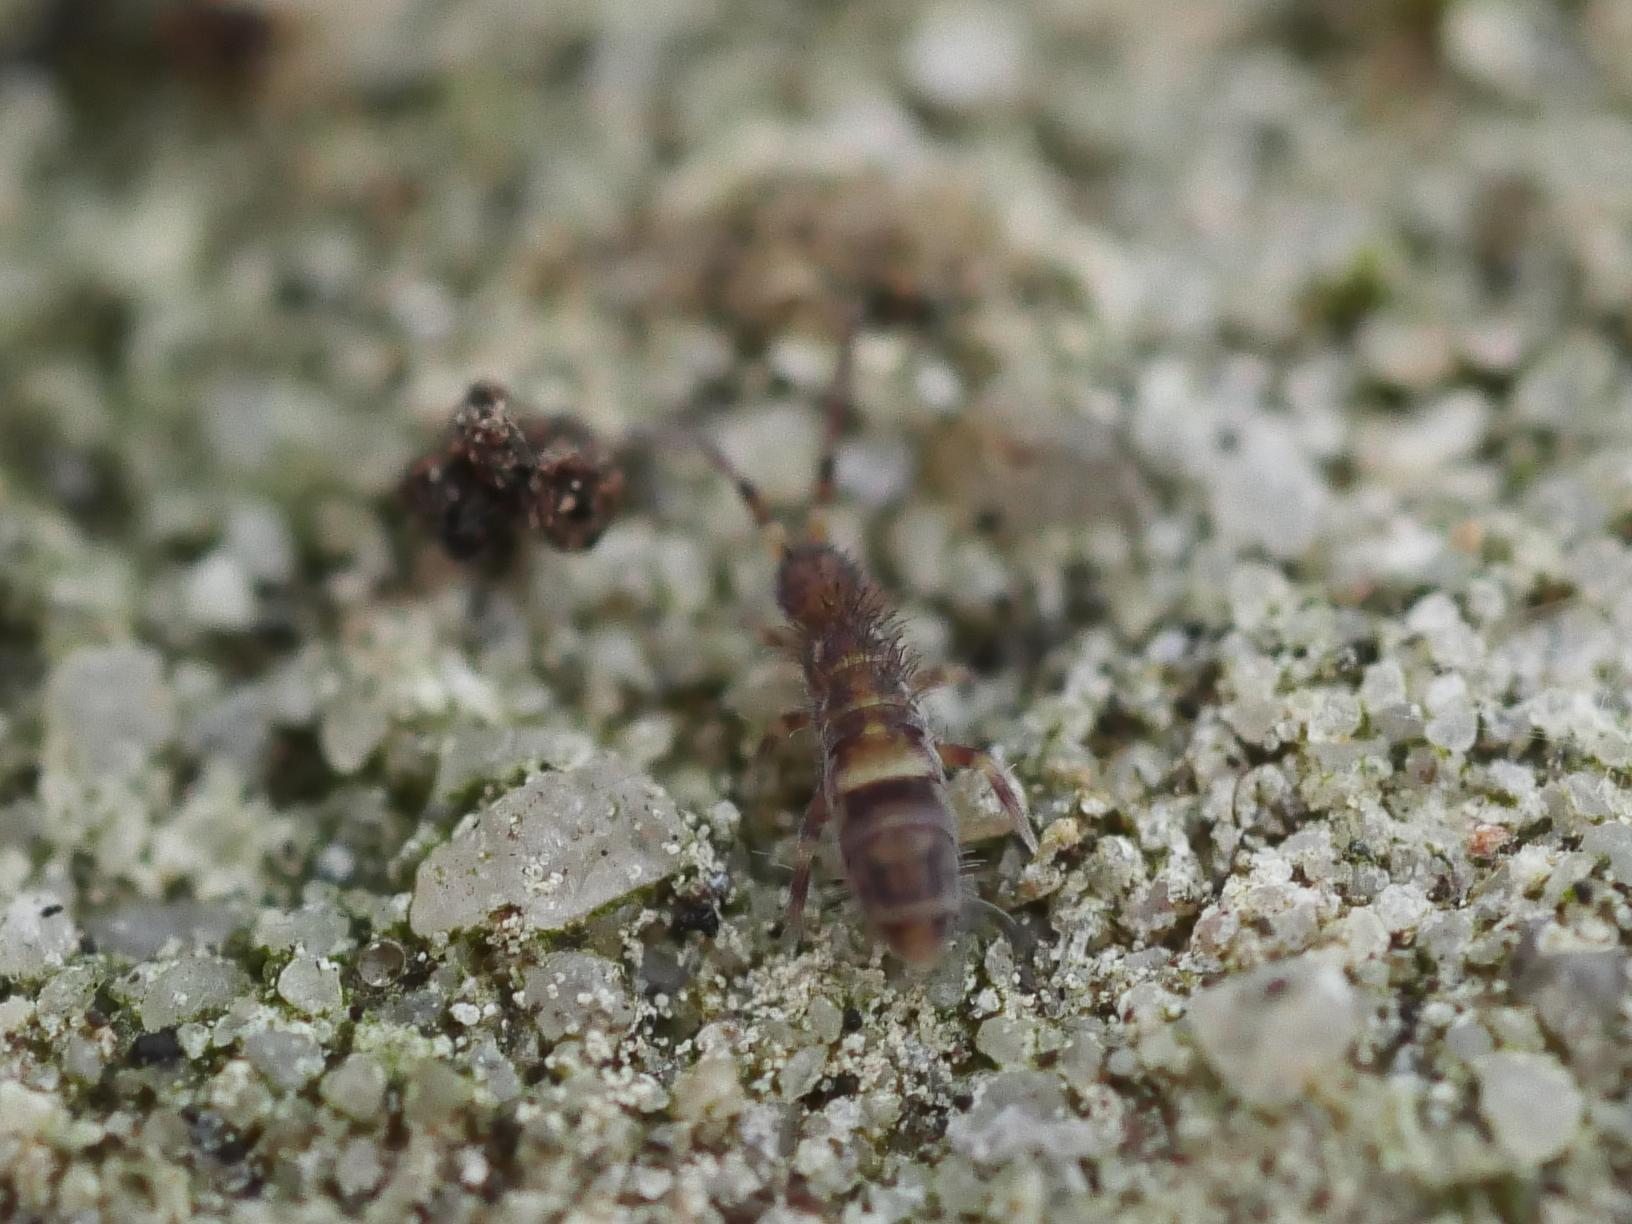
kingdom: Animalia
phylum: Arthropoda
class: Collembola
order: Entomobryomorpha
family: Orchesellidae
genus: Orchesella
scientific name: Orchesella cincta
